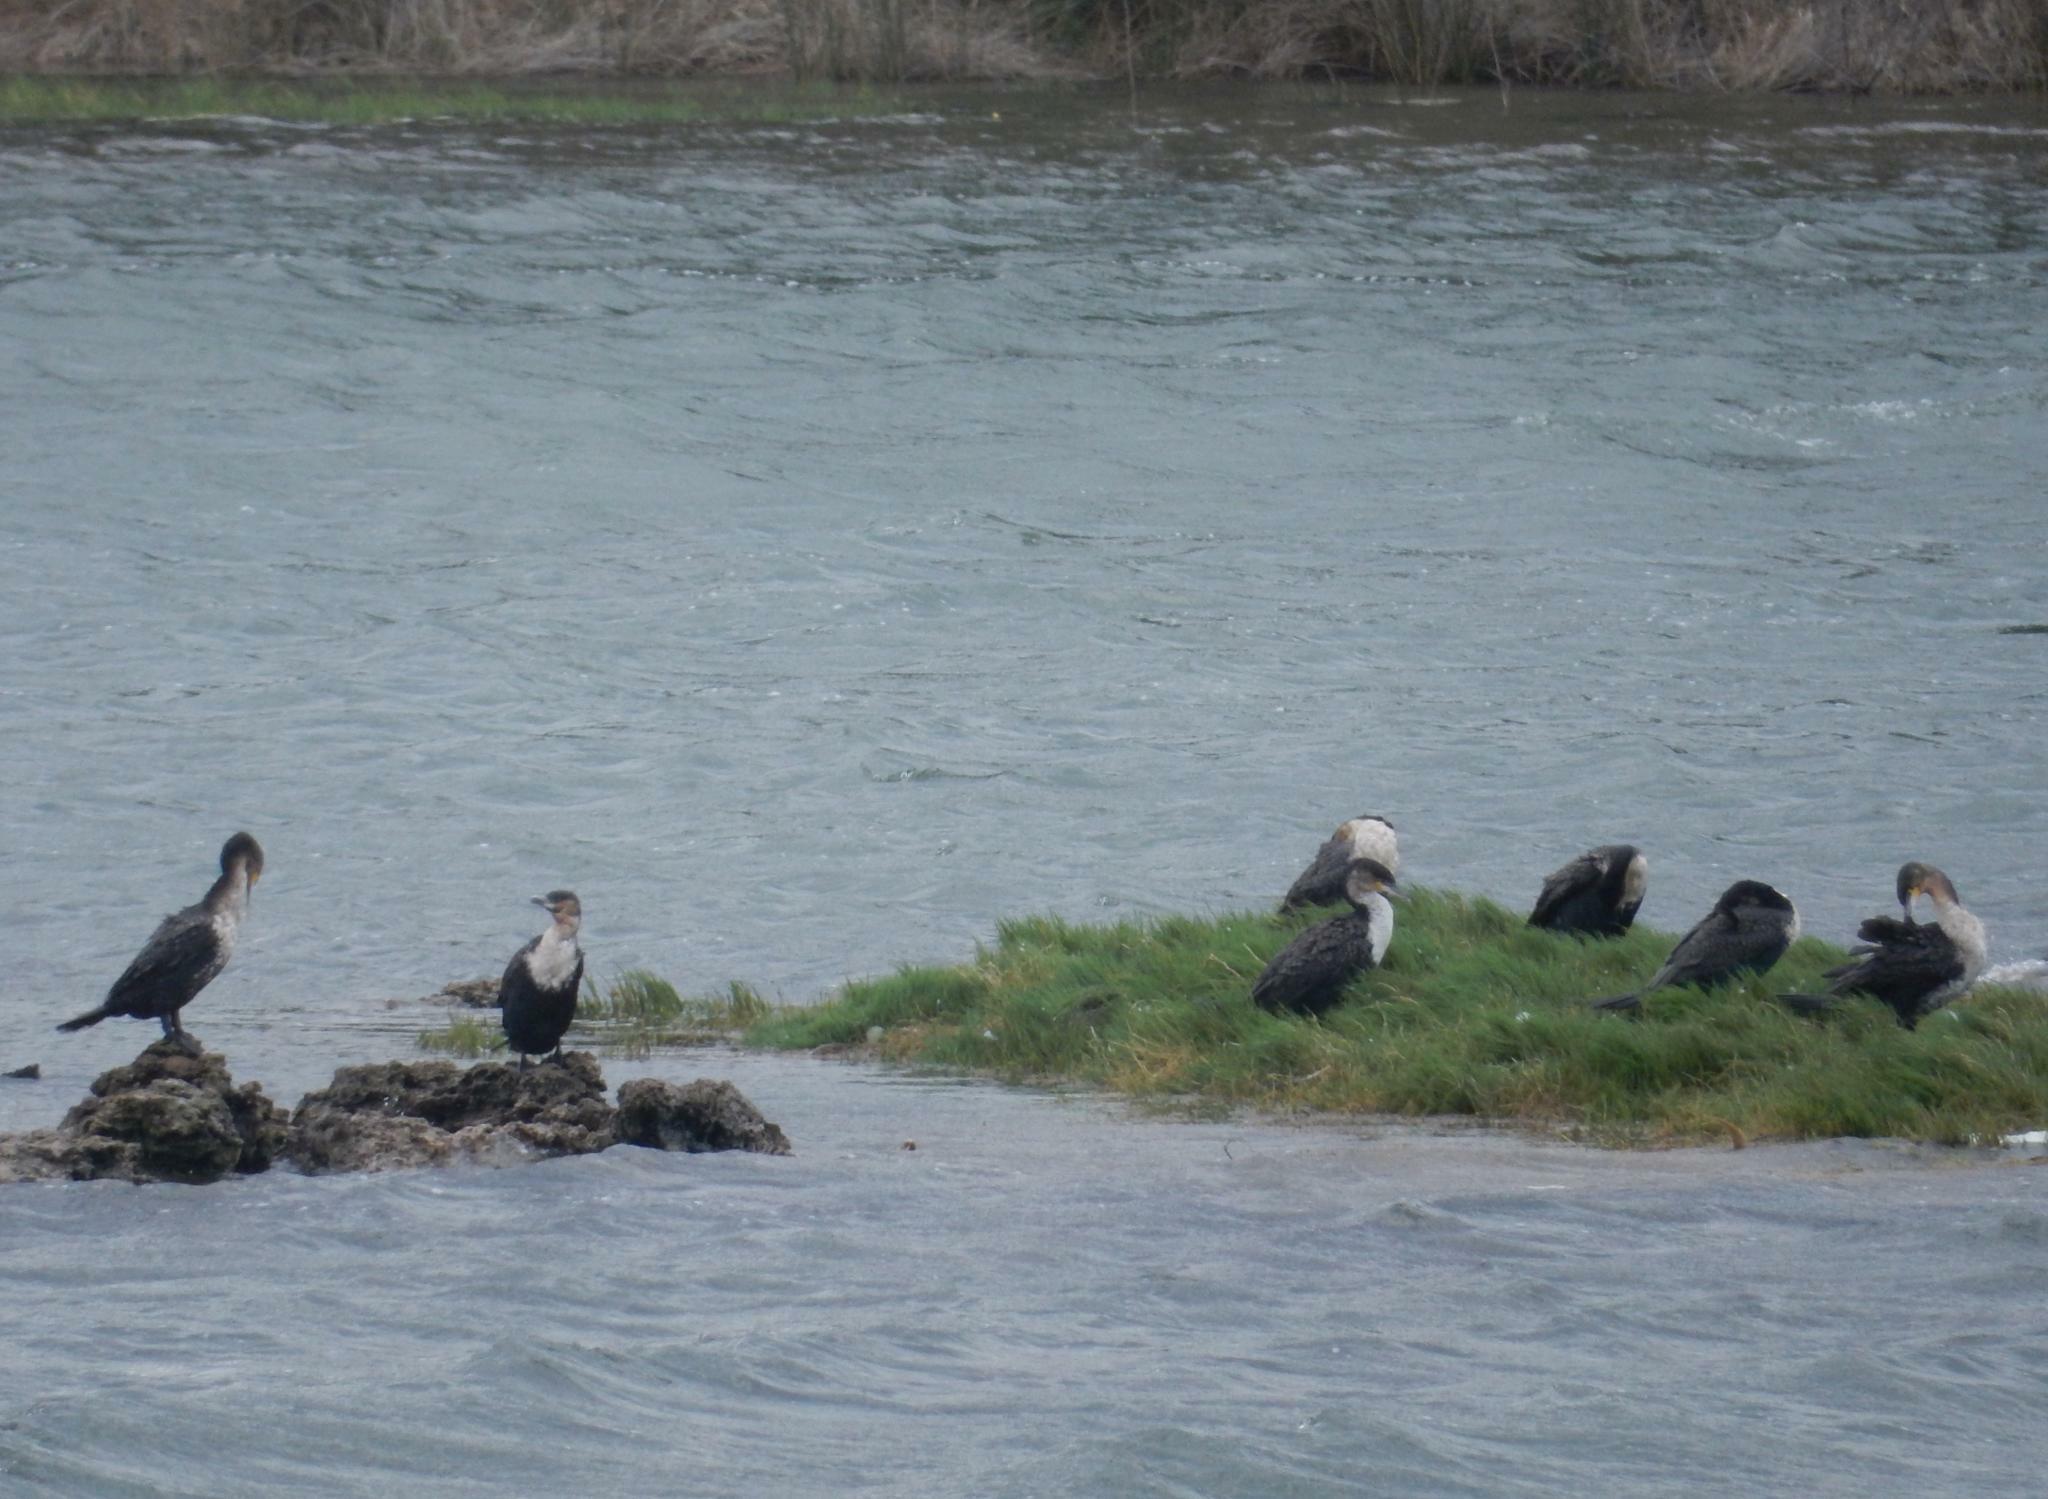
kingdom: Animalia
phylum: Chordata
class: Aves
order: Suliformes
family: Phalacrocoracidae
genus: Phalacrocorax
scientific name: Phalacrocorax carbo
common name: Great cormorant
